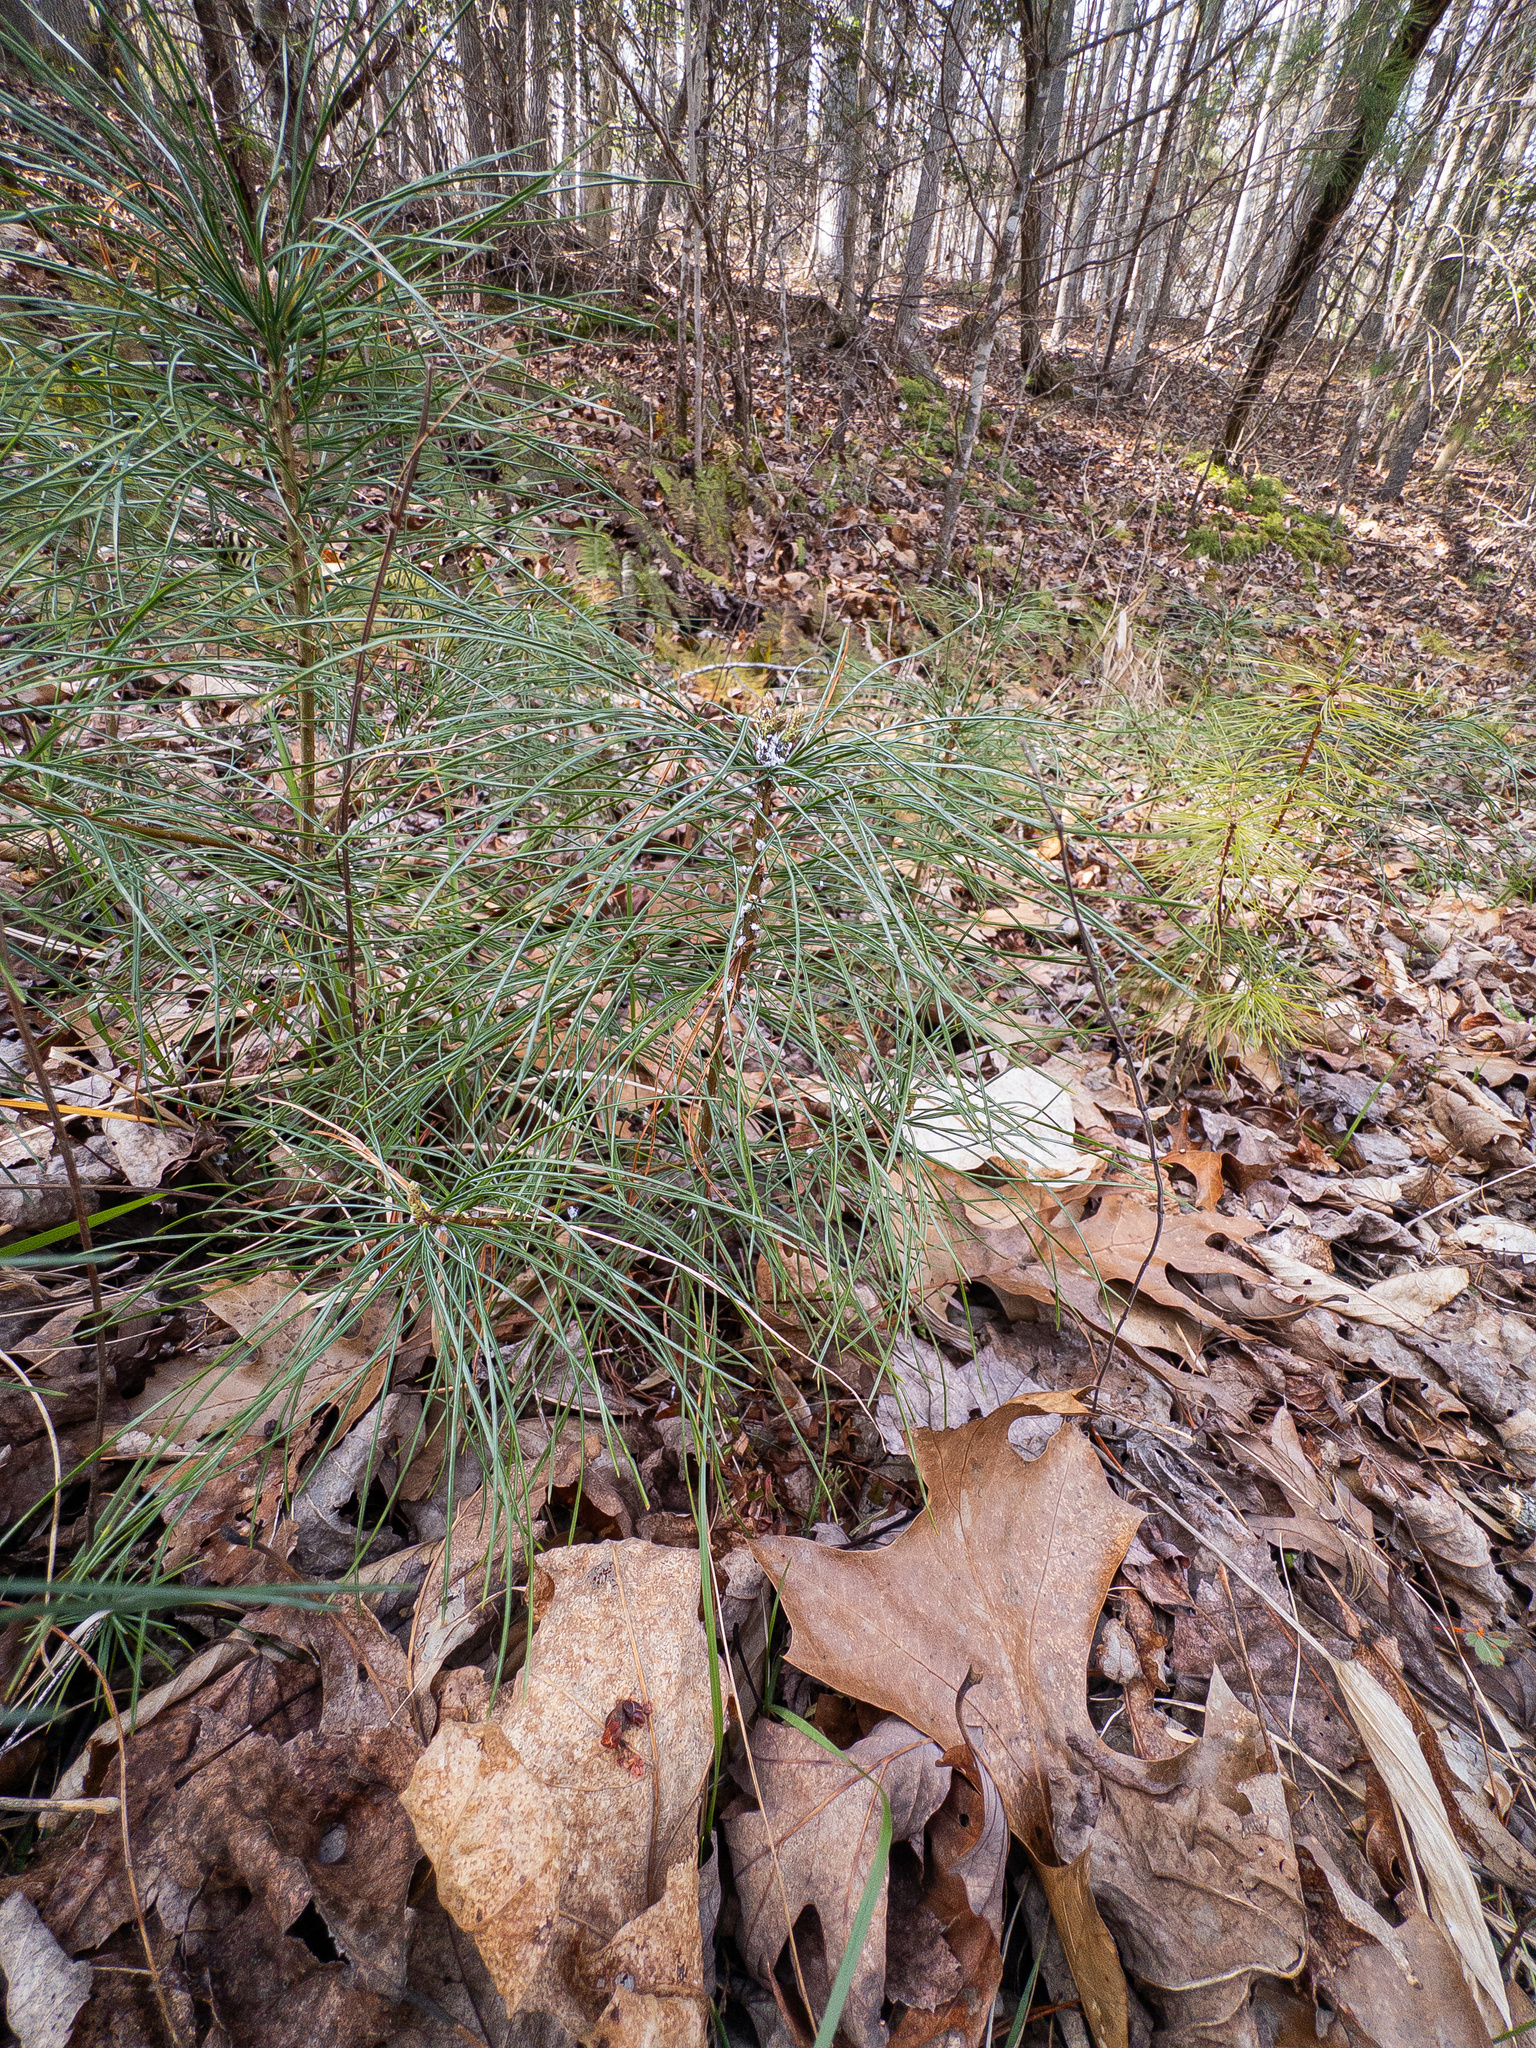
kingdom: Animalia
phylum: Arthropoda
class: Insecta
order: Hemiptera
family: Adelgidae
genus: Pineus
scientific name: Pineus strobi
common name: Pine bark adelgid
